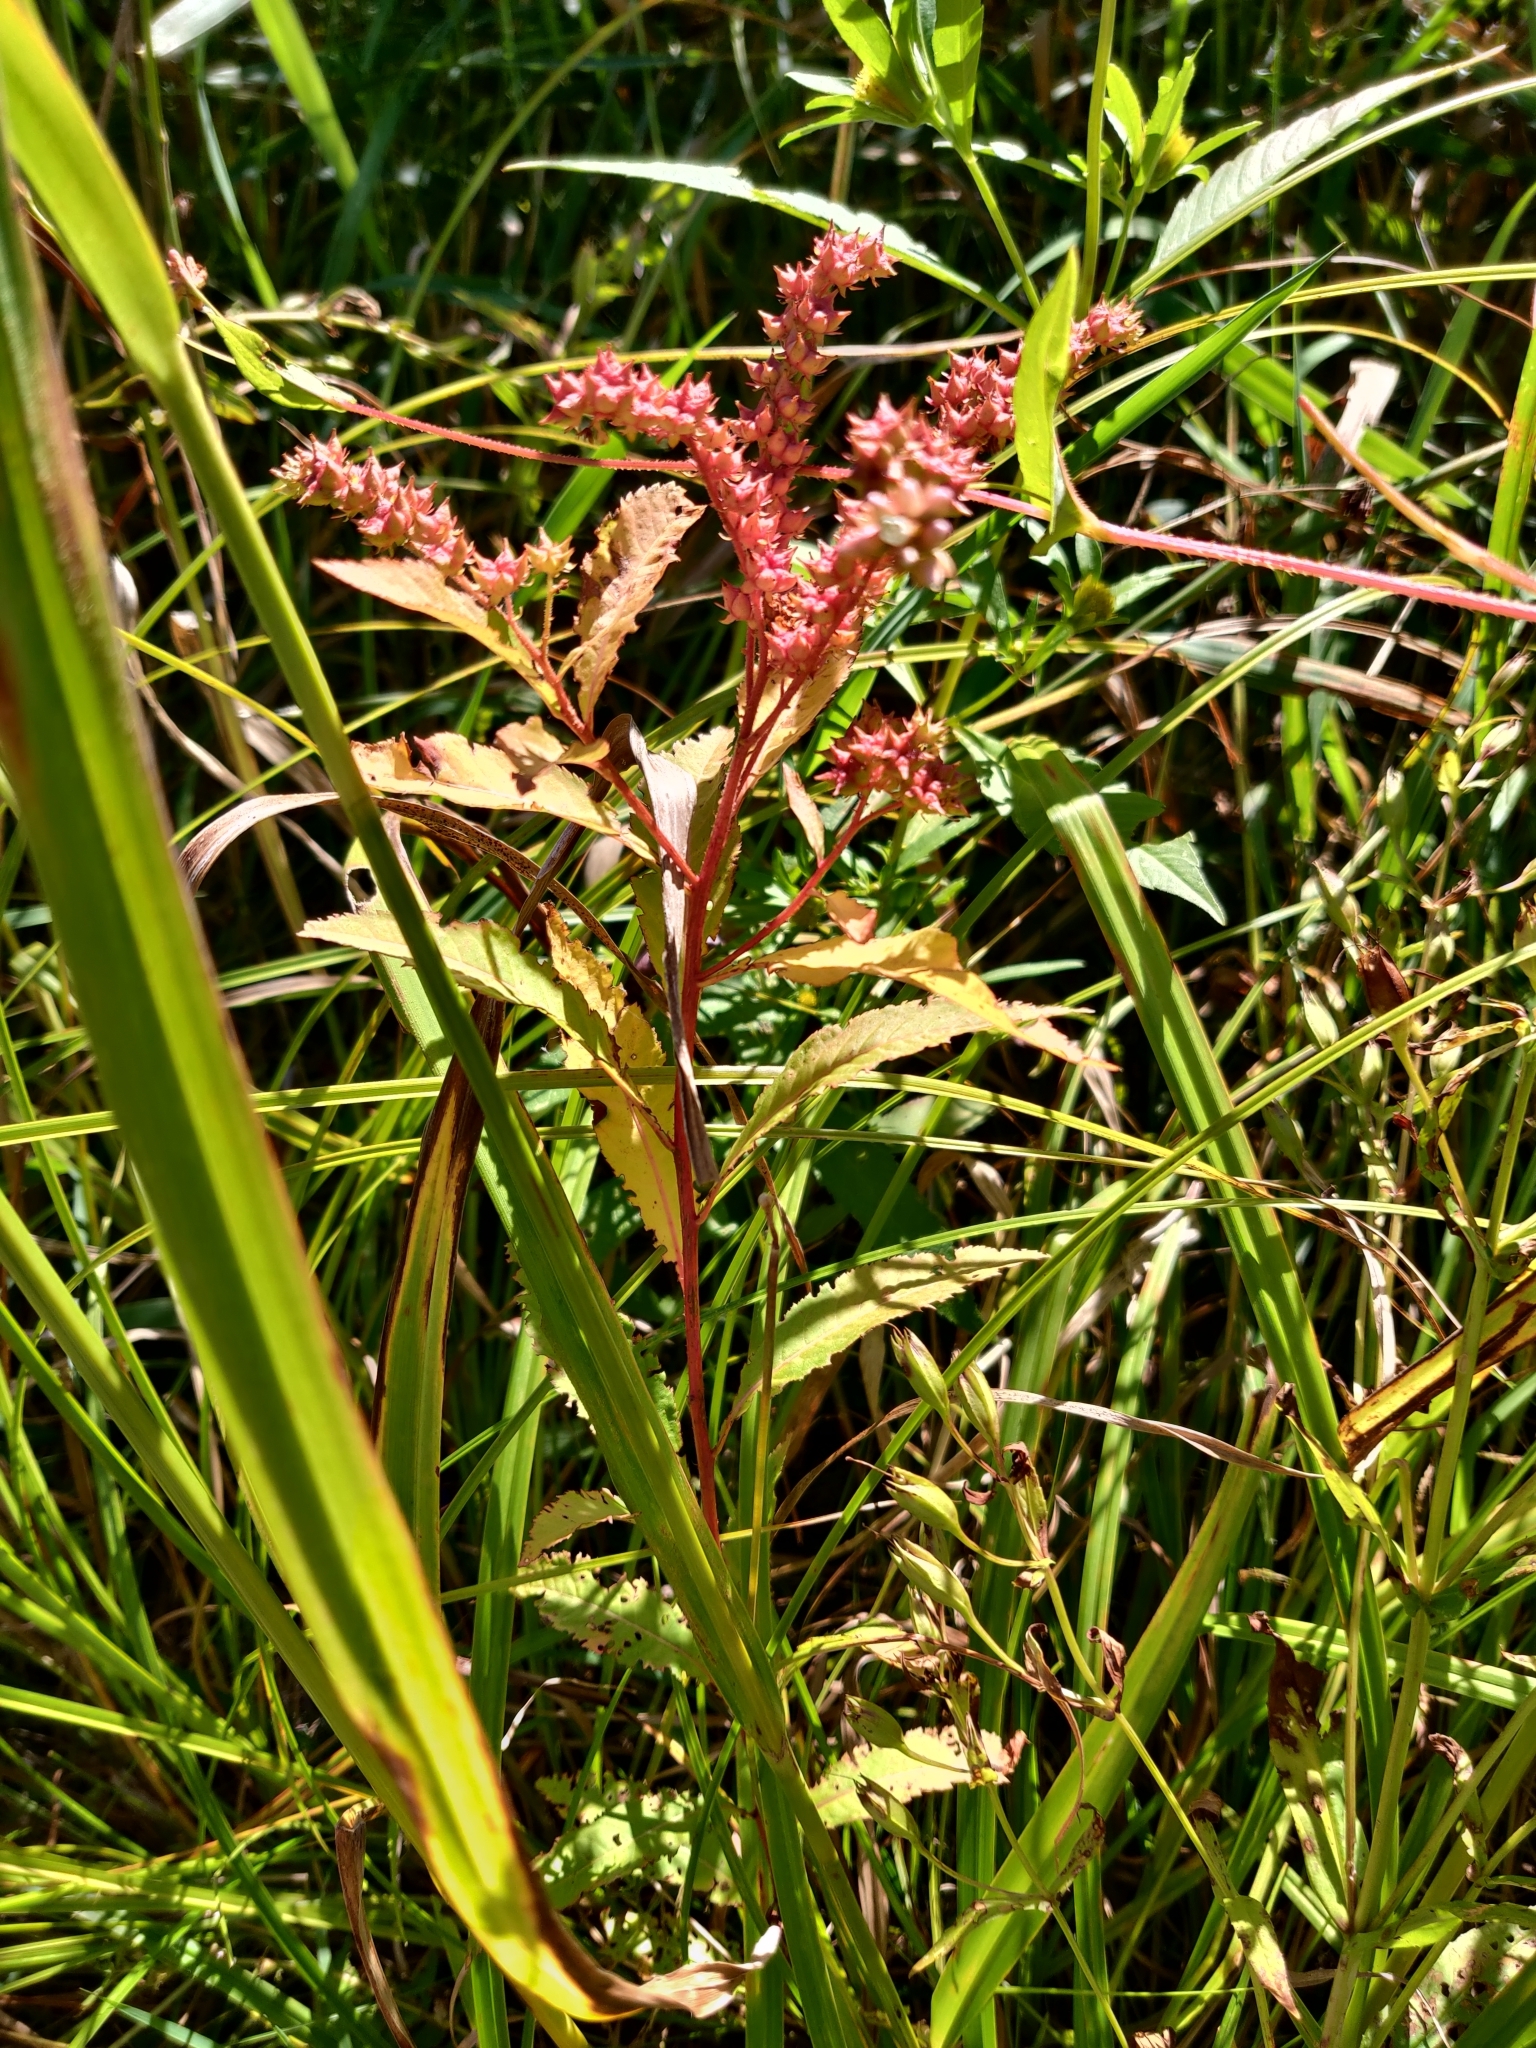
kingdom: Plantae
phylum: Tracheophyta
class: Magnoliopsida
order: Saxifragales
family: Penthoraceae
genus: Penthorum
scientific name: Penthorum sedoides
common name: Ditch stonecrop
